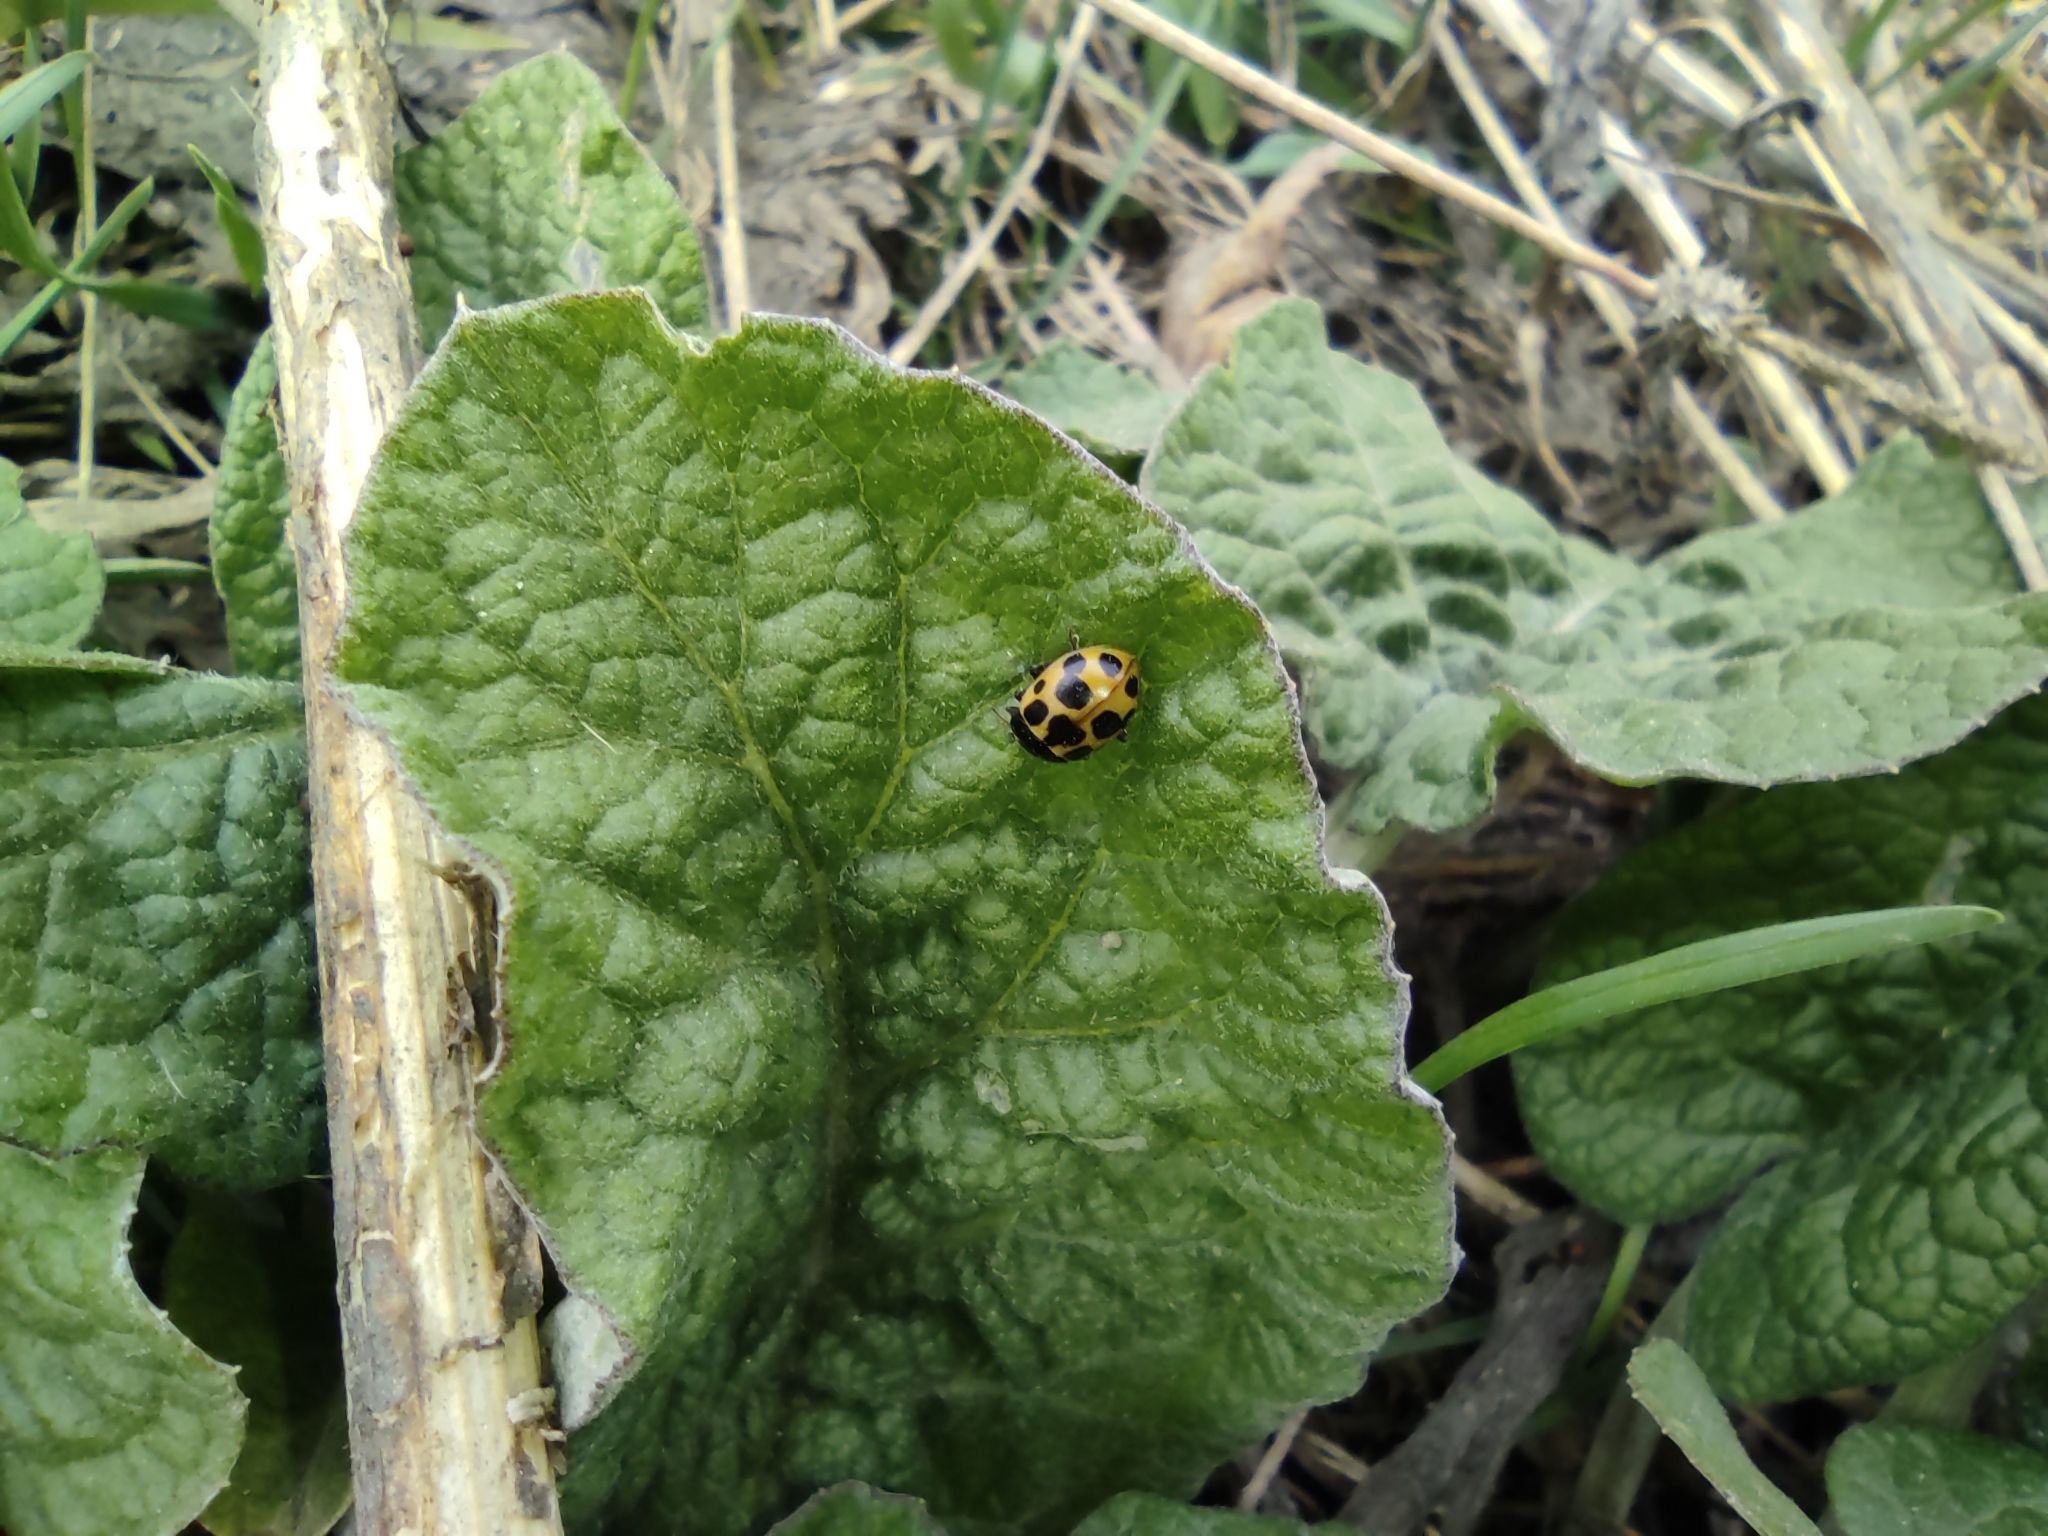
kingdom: Plantae
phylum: Tracheophyta
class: Magnoliopsida
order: Asterales
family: Asteraceae
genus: Arctium
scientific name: Arctium
